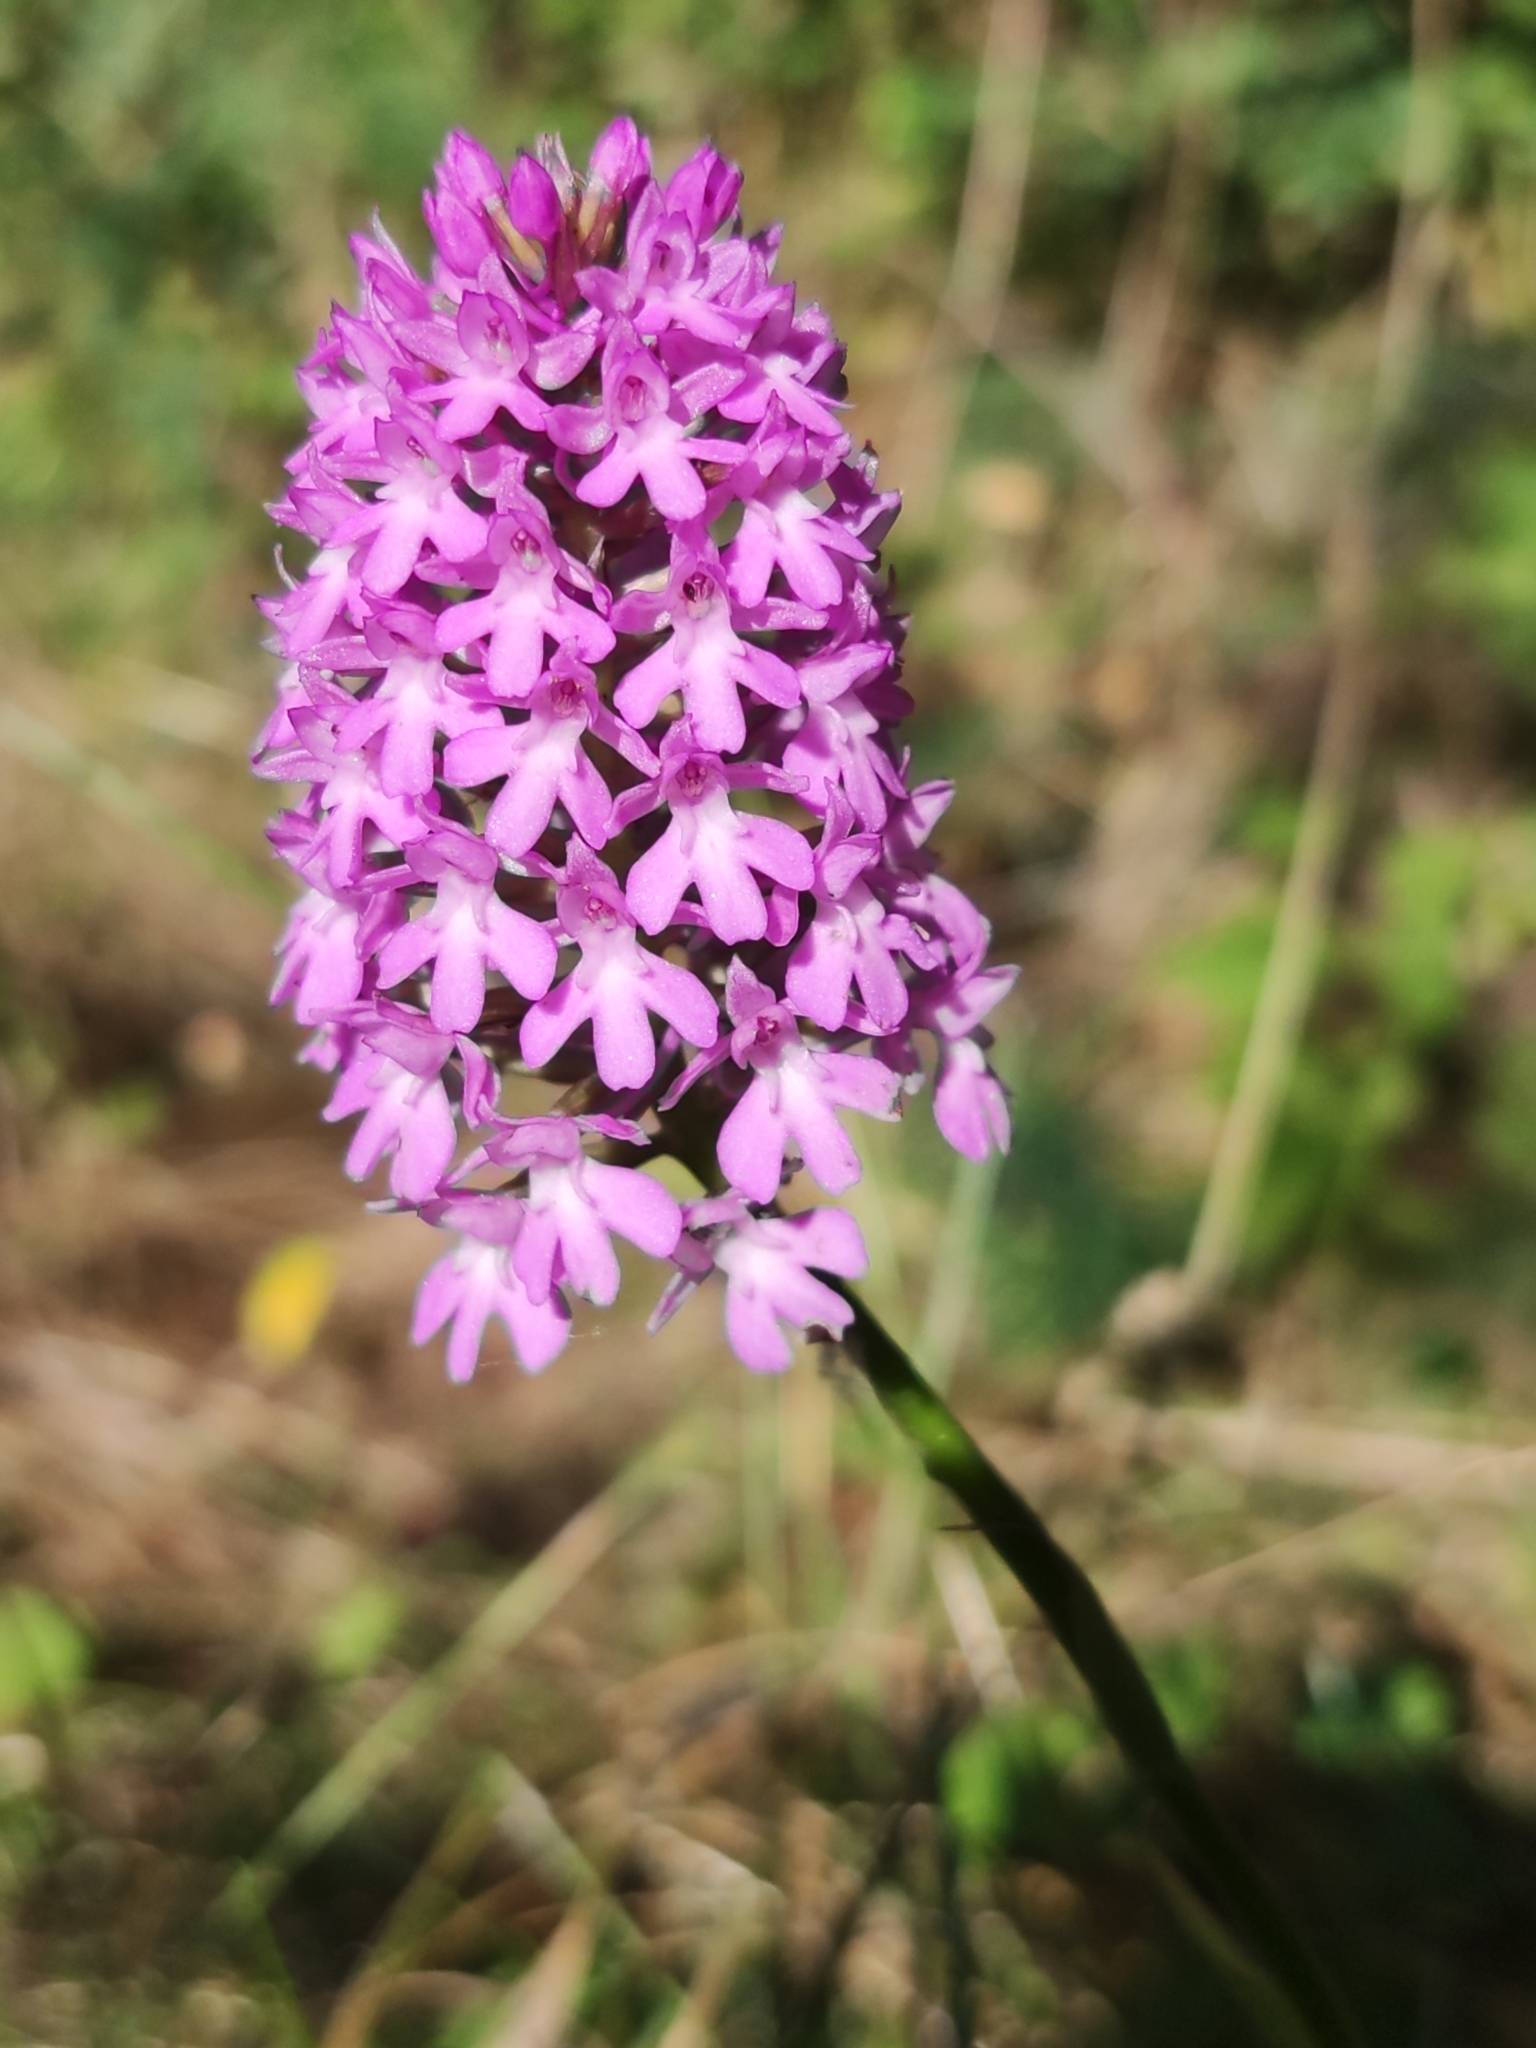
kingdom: Plantae
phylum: Tracheophyta
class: Liliopsida
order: Asparagales
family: Orchidaceae
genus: Anacamptis
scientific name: Anacamptis pyramidalis
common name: Pyramidal orchid
